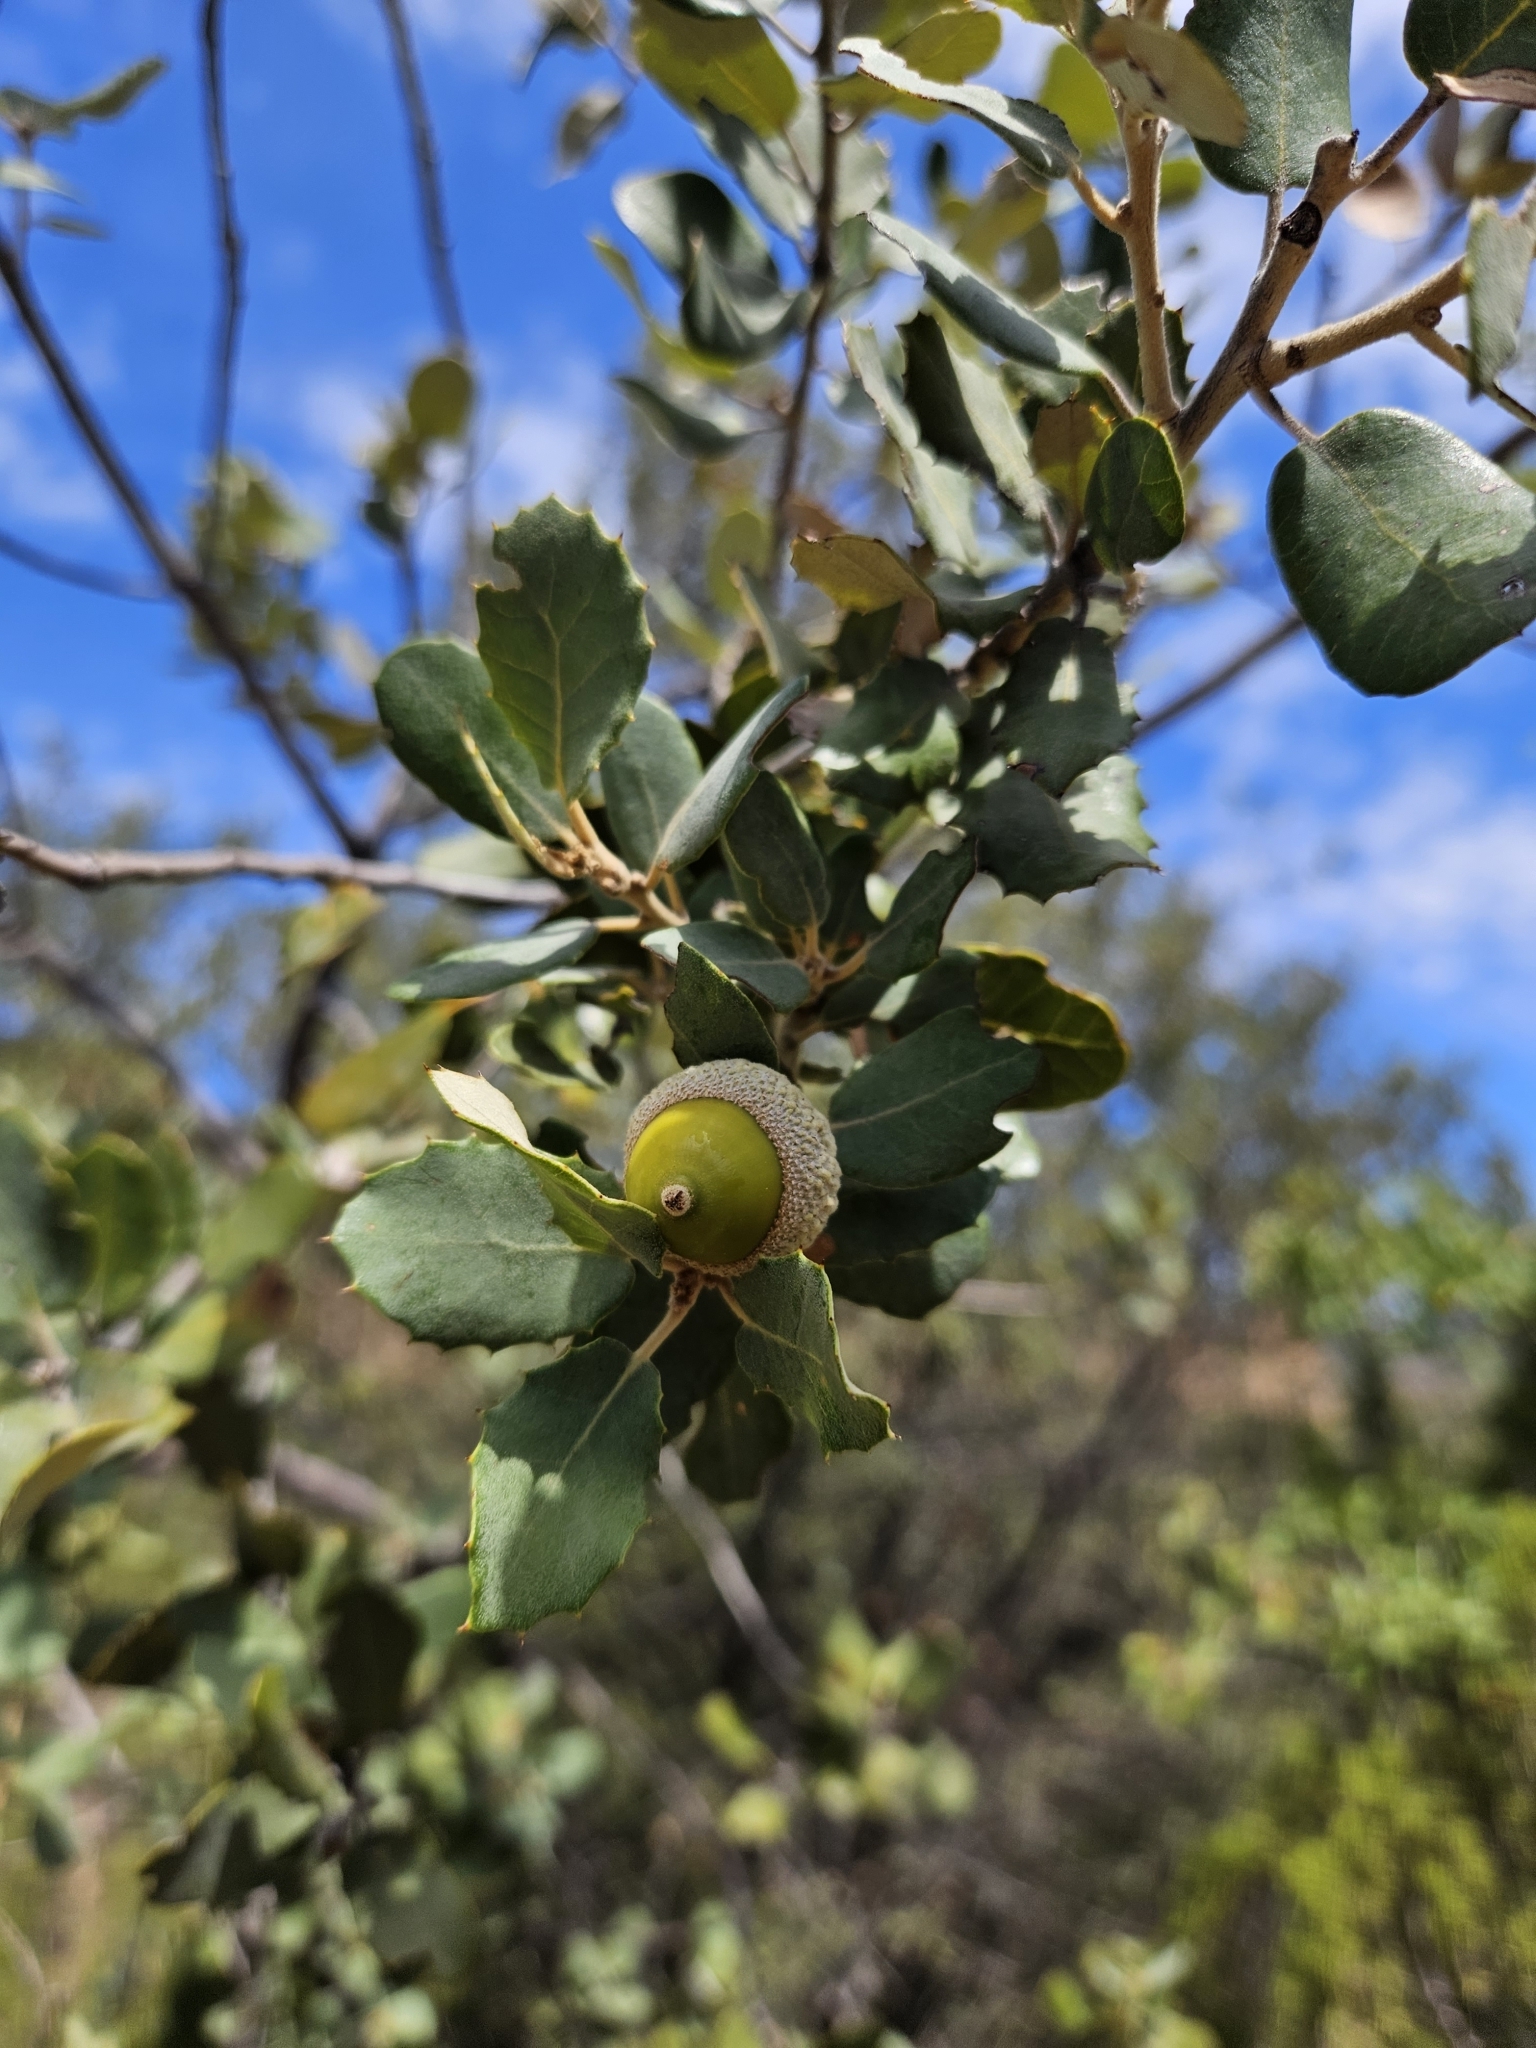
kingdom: Plantae
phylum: Tracheophyta
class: Magnoliopsida
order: Fagales
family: Fagaceae
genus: Quercus
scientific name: Quercus rotundifolia
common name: Holm oak
